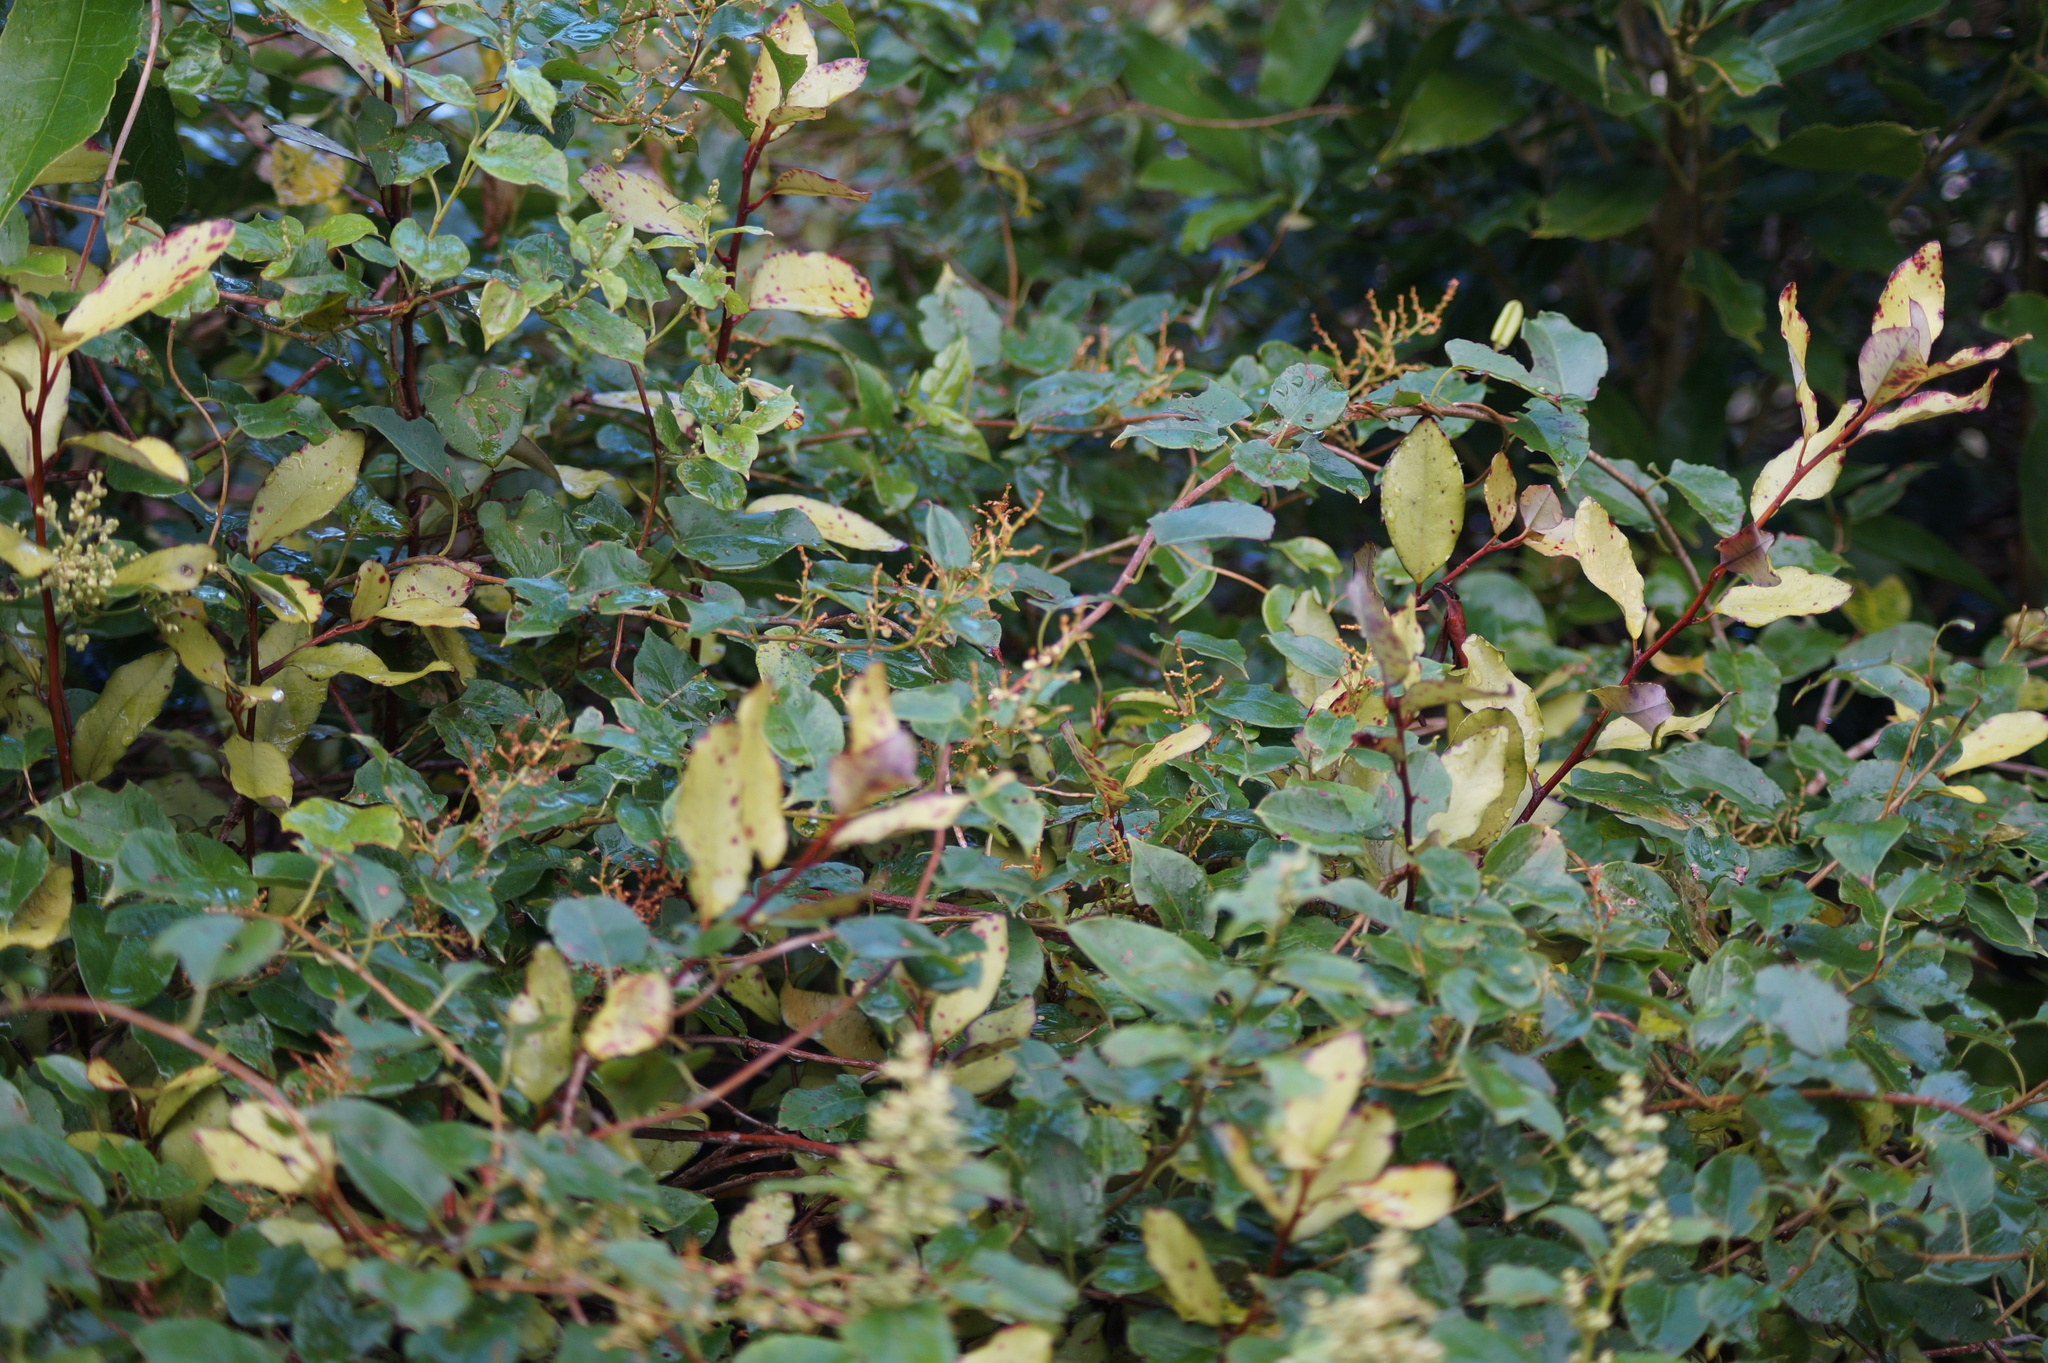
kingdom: Plantae
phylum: Tracheophyta
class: Magnoliopsida
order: Caryophyllales
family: Polygonaceae
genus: Muehlenbeckia
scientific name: Muehlenbeckia australis
